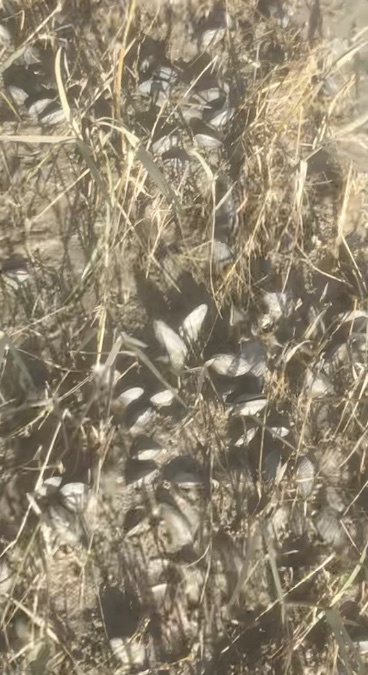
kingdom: Animalia
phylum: Mollusca
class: Bivalvia
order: Mytilida
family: Mytilidae
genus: Geukensia
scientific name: Geukensia demissa
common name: Ribbed mussel
